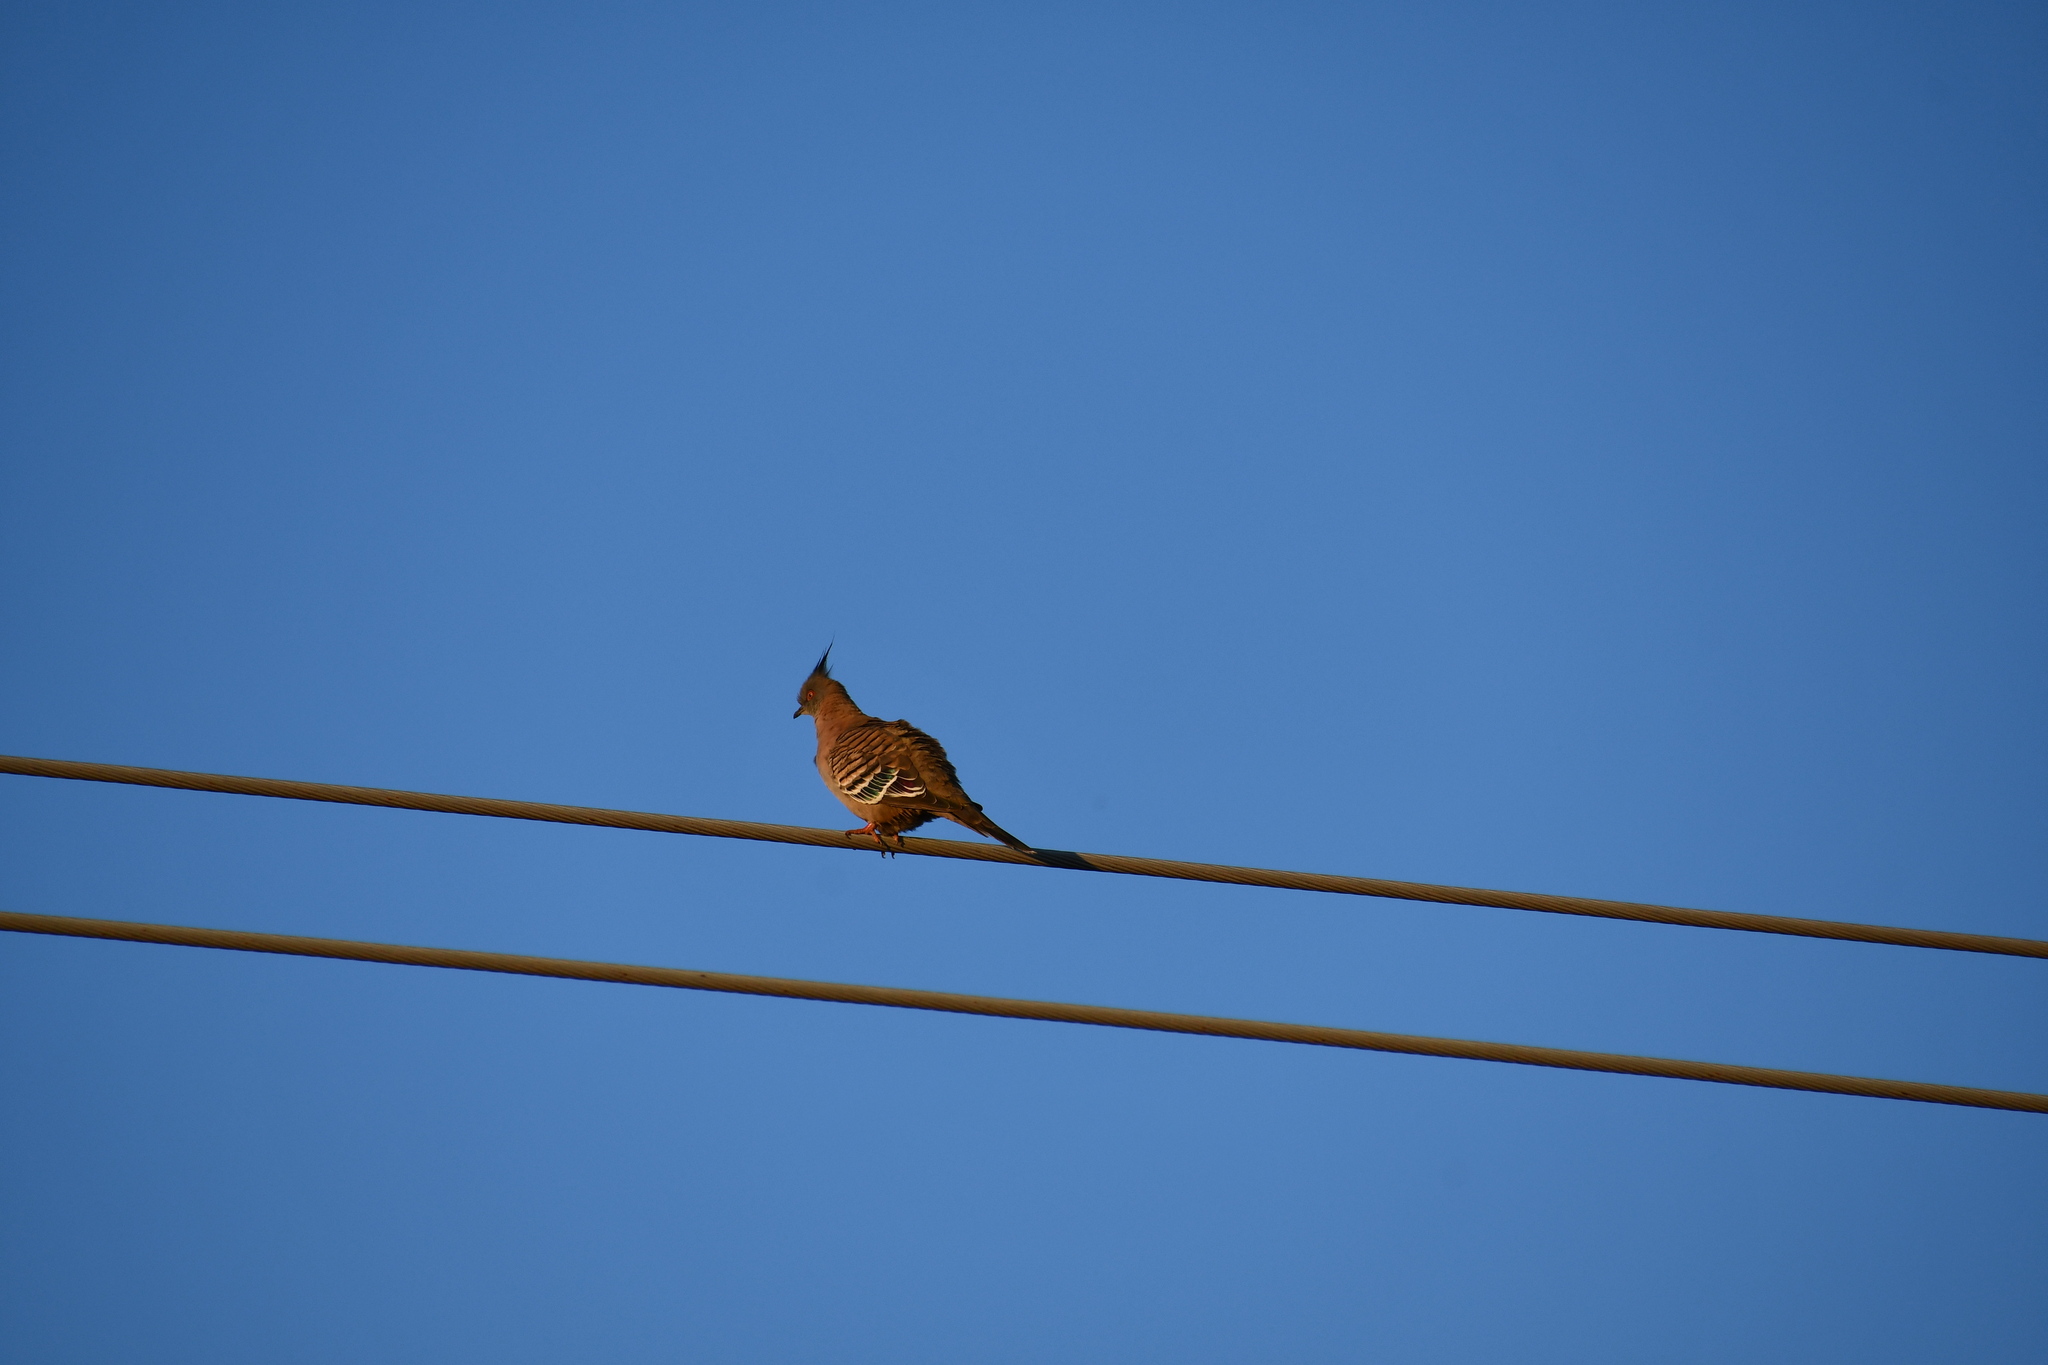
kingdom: Animalia
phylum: Chordata
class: Aves
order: Columbiformes
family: Columbidae
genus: Ocyphaps
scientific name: Ocyphaps lophotes
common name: Crested pigeon
